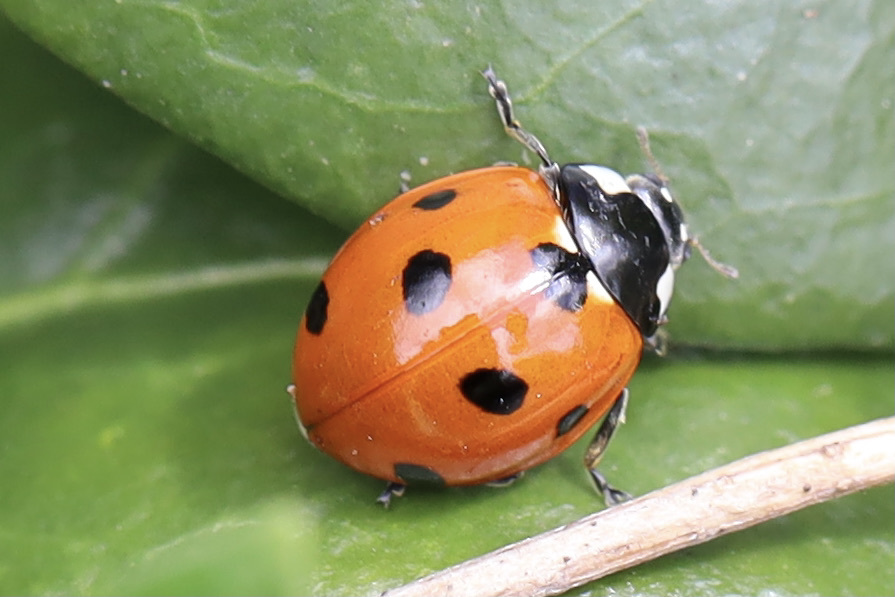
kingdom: Animalia
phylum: Arthropoda
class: Insecta
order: Coleoptera
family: Coccinellidae
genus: Coccinella
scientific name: Coccinella septempunctata
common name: Sevenspotted lady beetle
